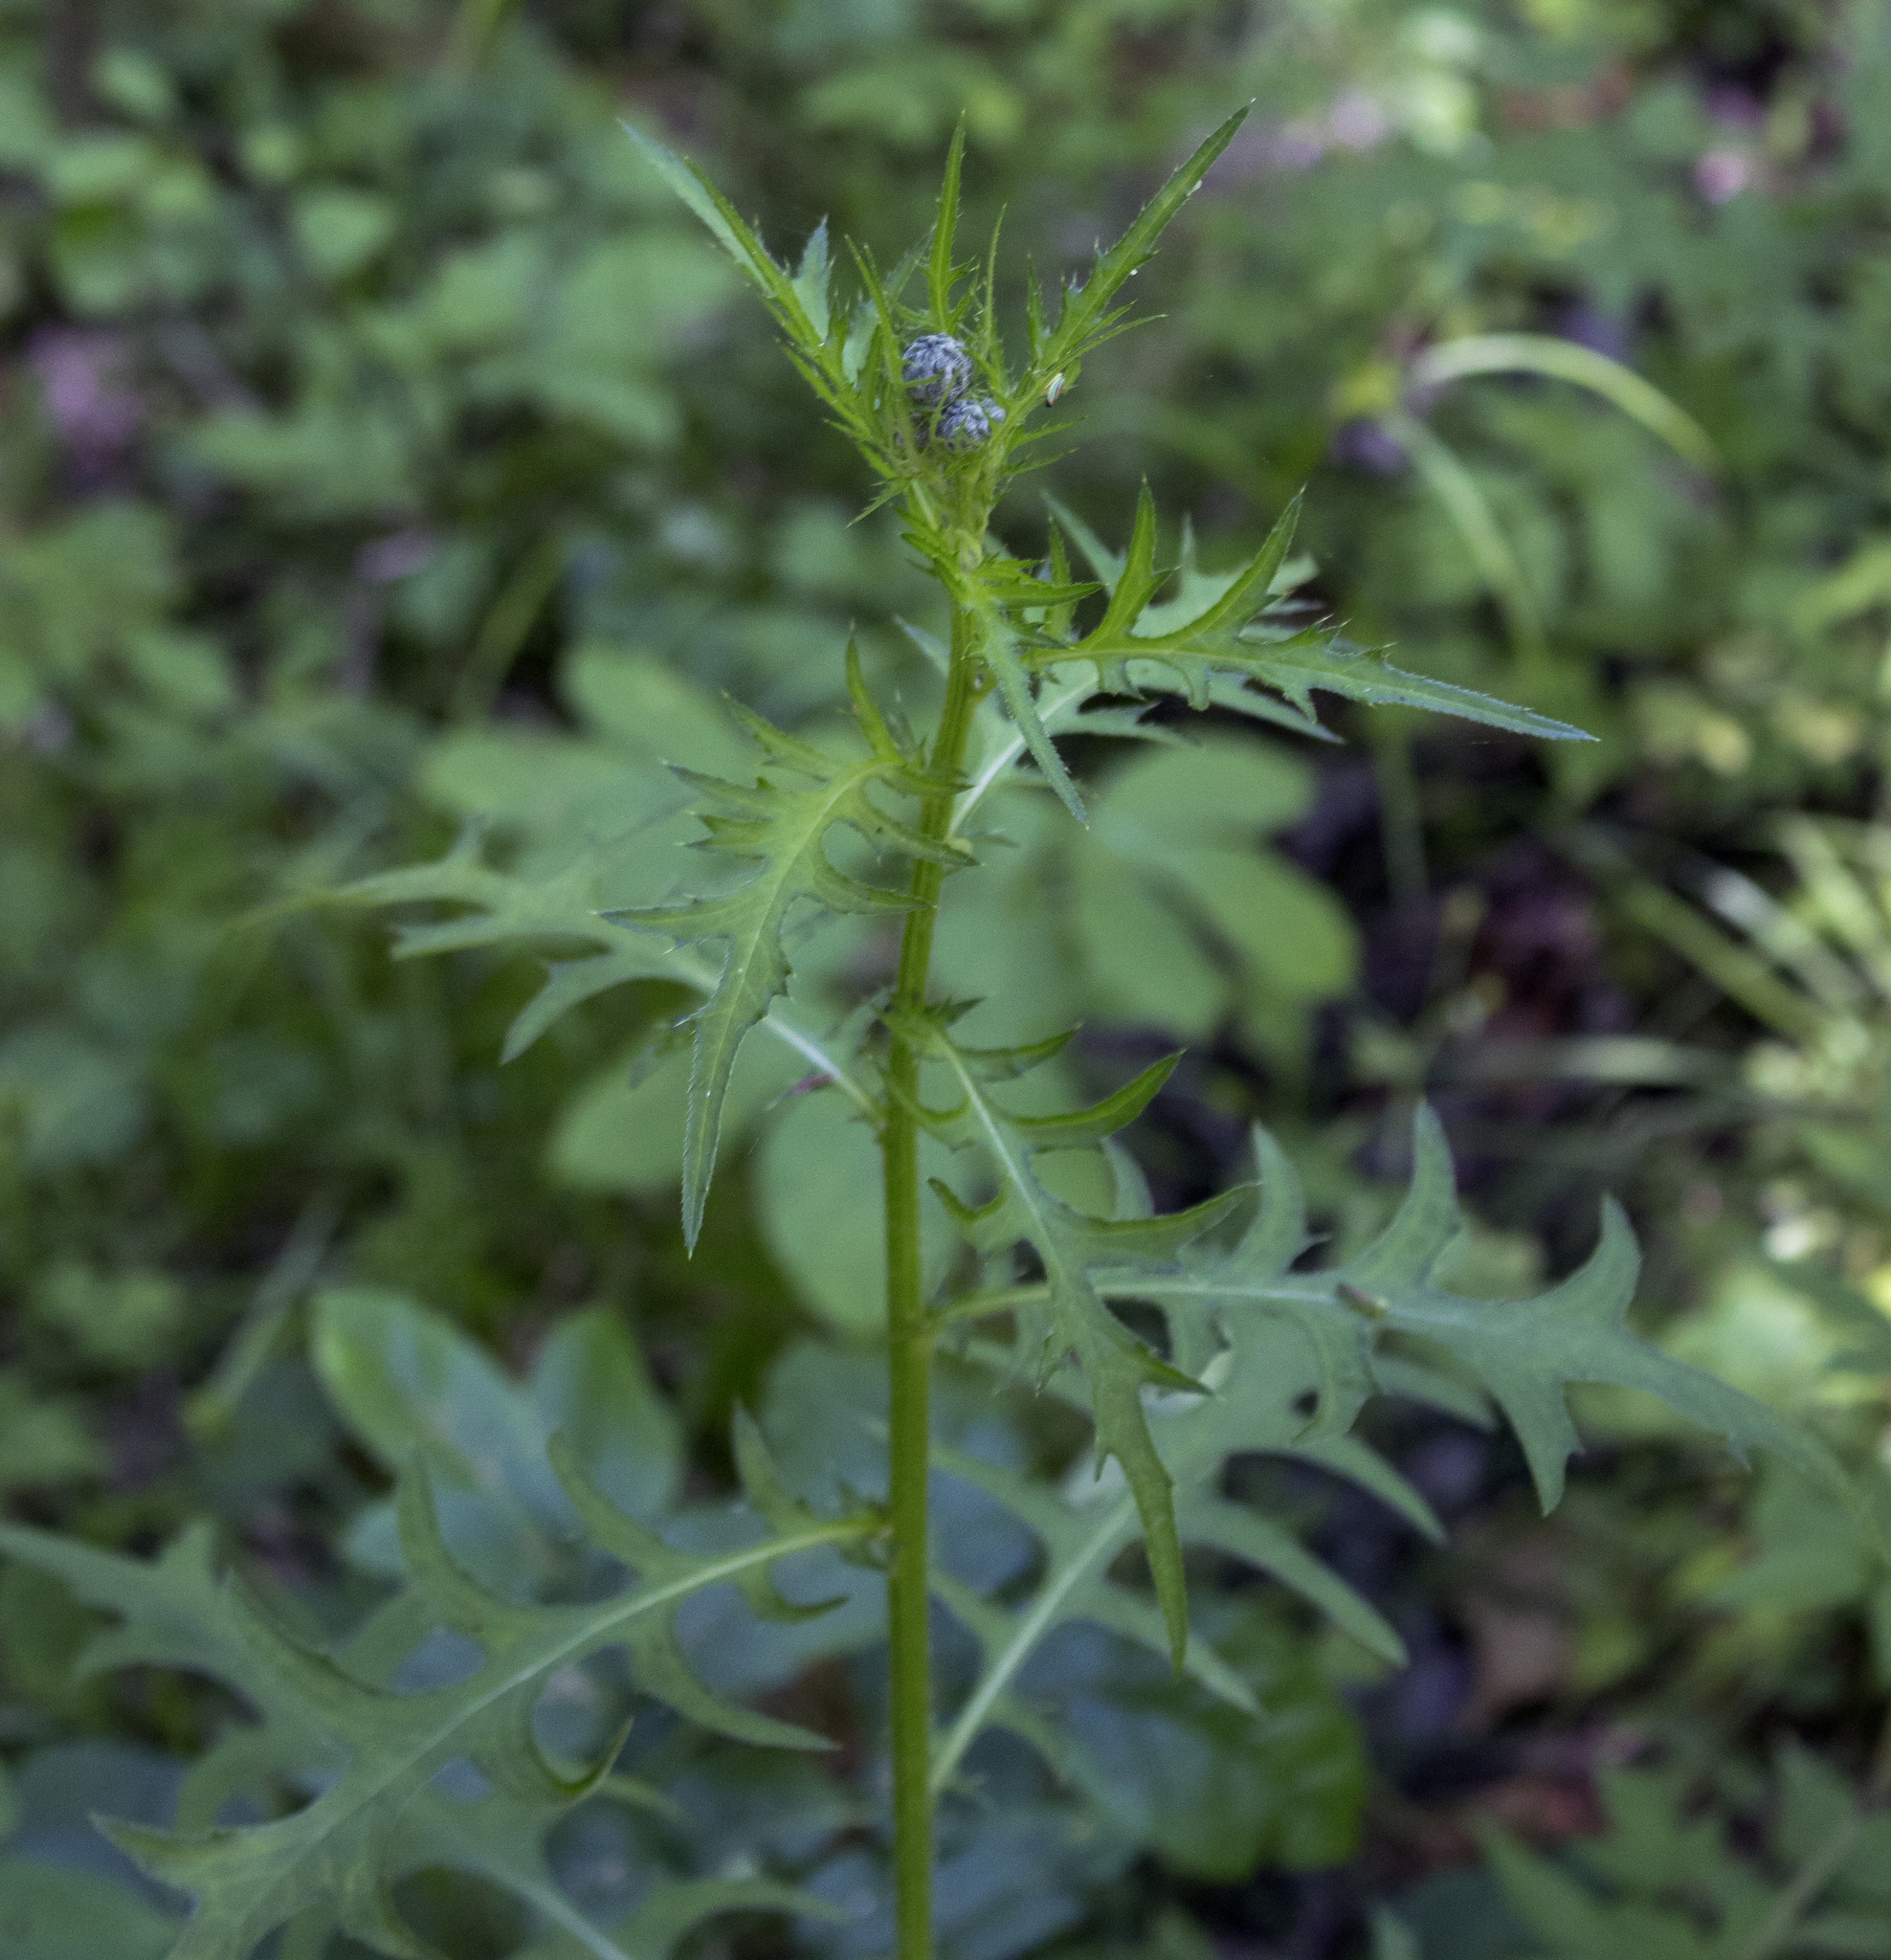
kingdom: Plantae
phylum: Tracheophyta
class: Magnoliopsida
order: Asterales
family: Asteraceae
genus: Cirsium
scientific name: Cirsium muticum
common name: Dunce-nettle
